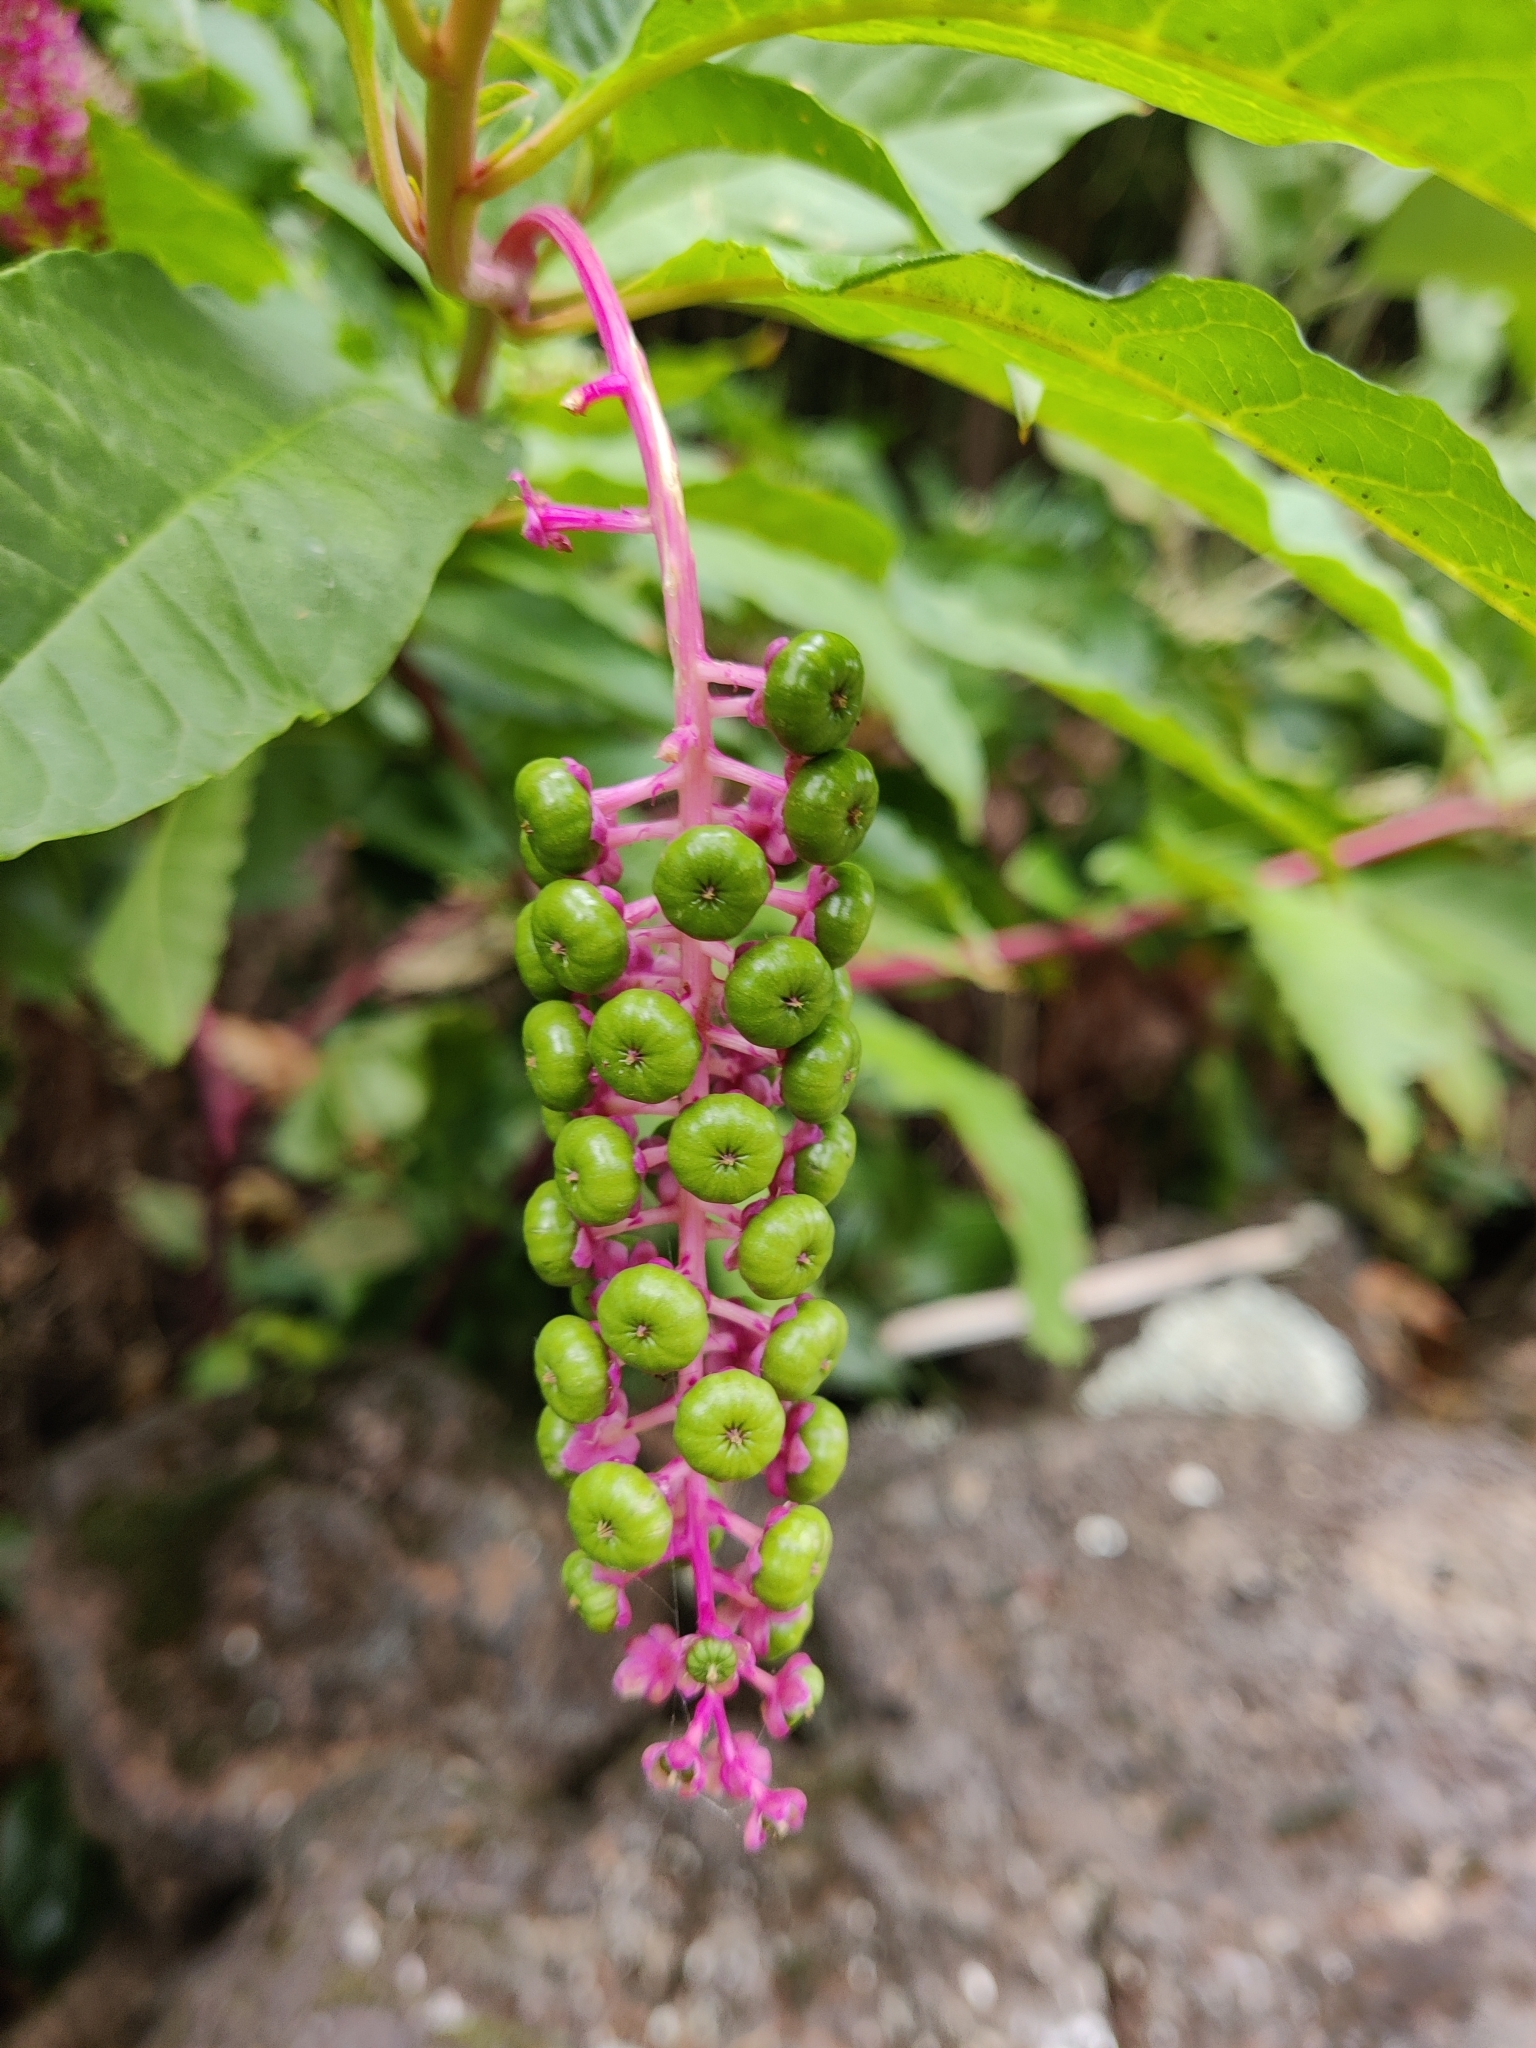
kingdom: Plantae
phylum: Tracheophyta
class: Magnoliopsida
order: Caryophyllales
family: Phytolaccaceae
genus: Phytolacca
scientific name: Phytolacca americana
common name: American pokeweed
